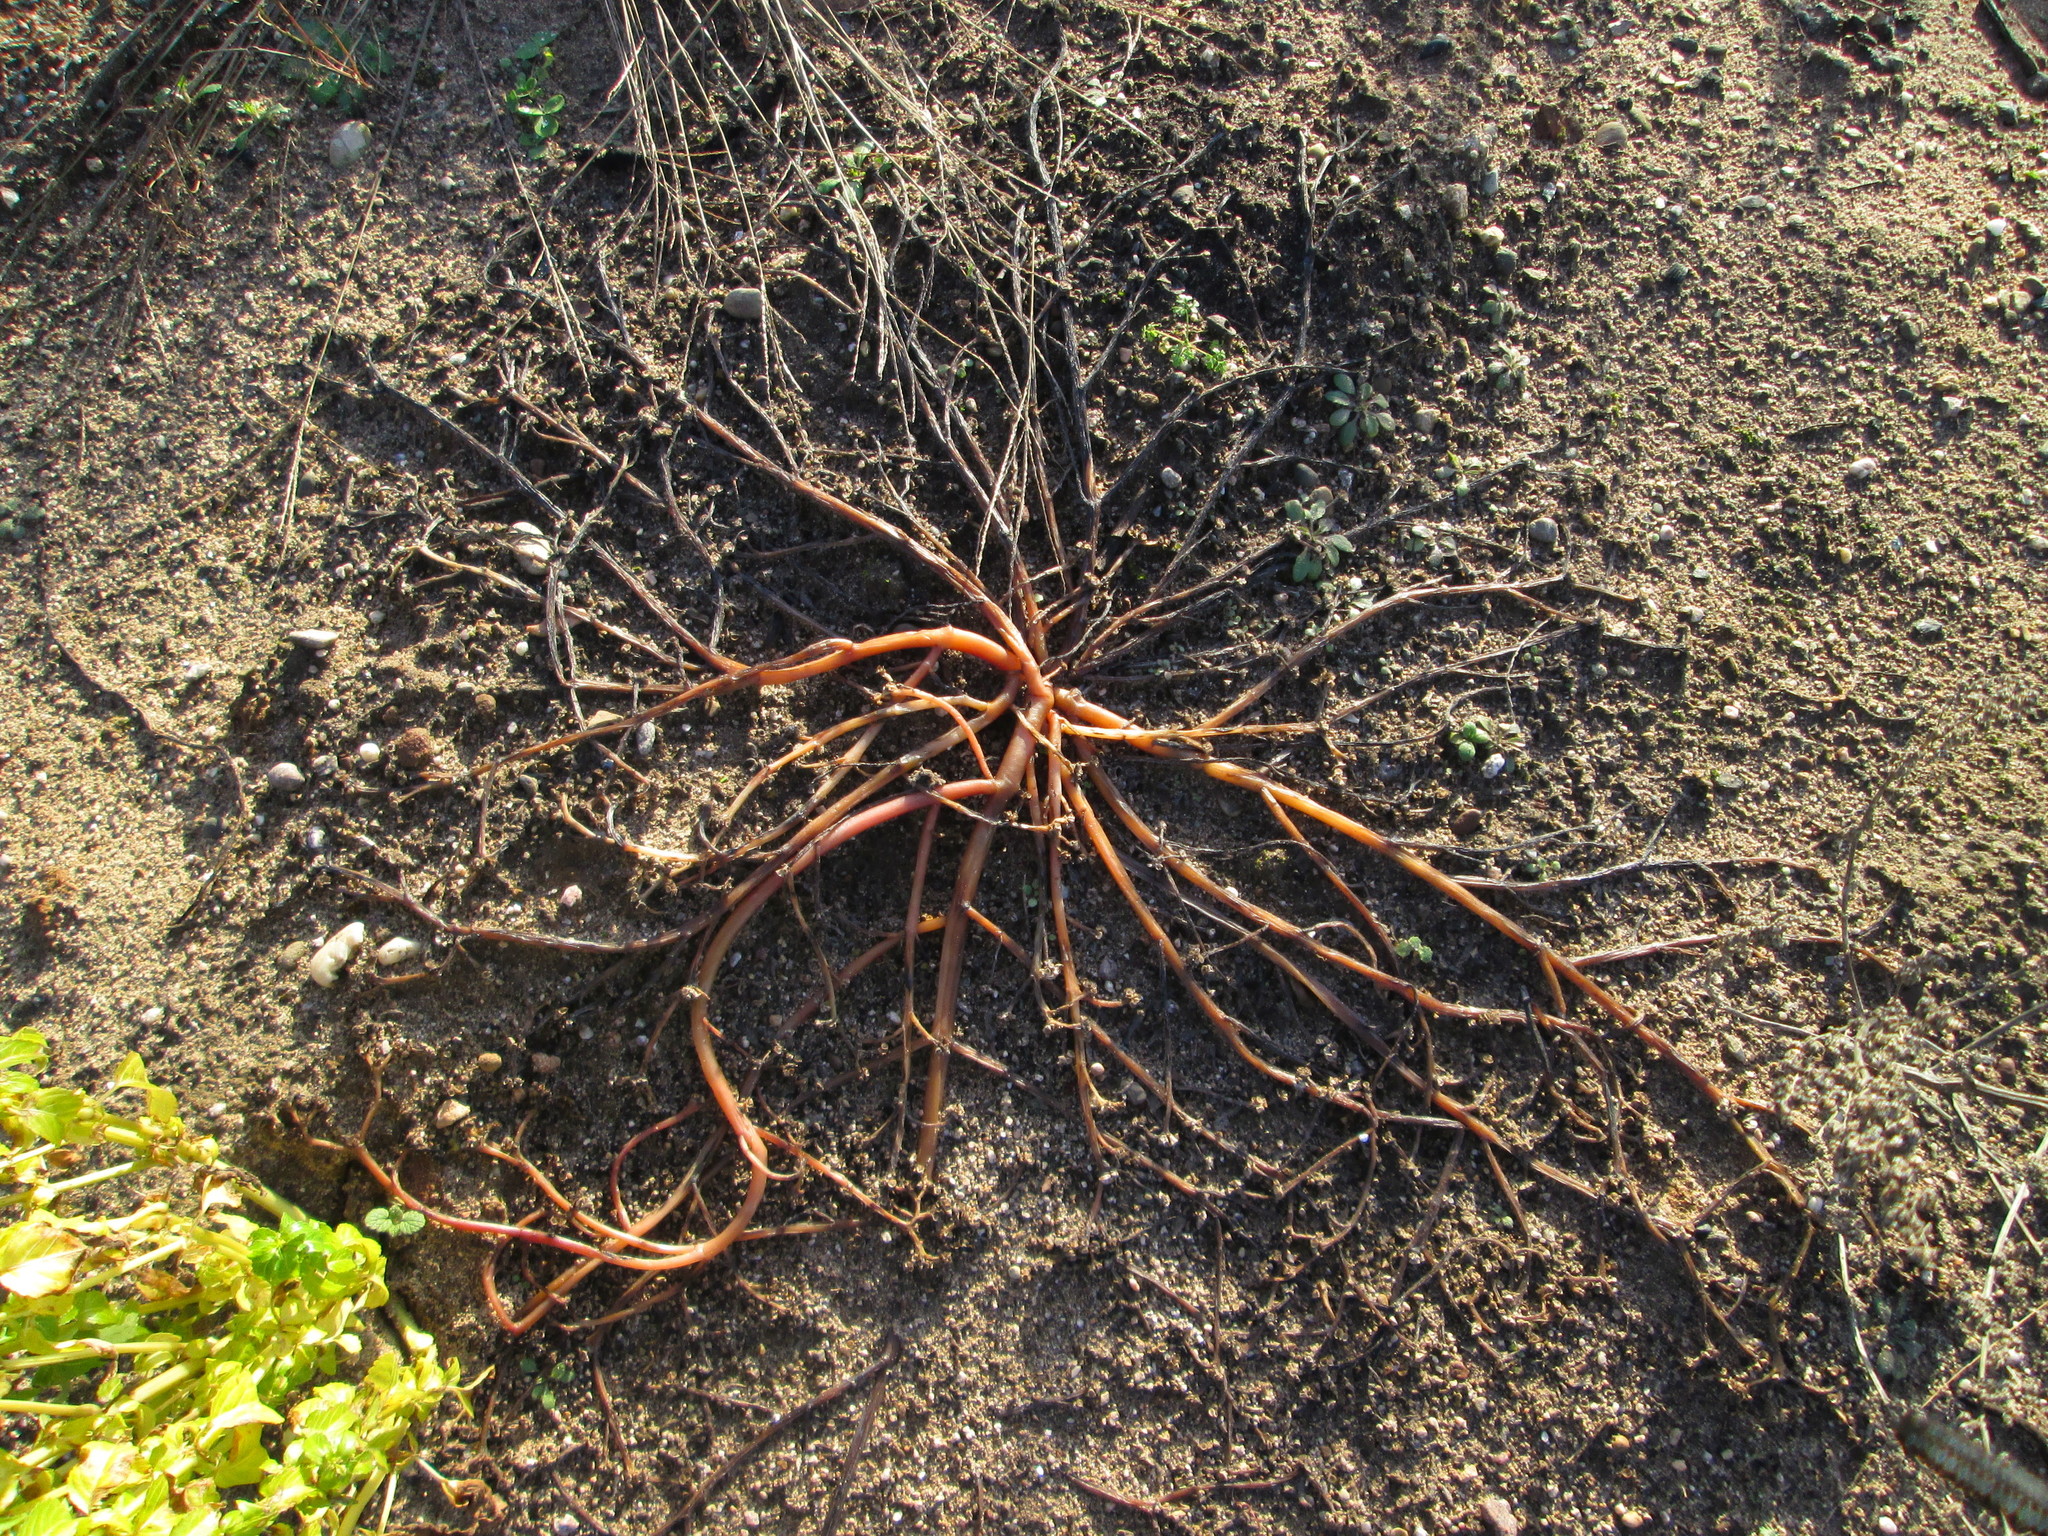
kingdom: Plantae
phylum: Tracheophyta
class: Magnoliopsida
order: Caryophyllales
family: Portulacaceae
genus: Portulaca
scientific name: Portulaca oleracea
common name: Common purslane
